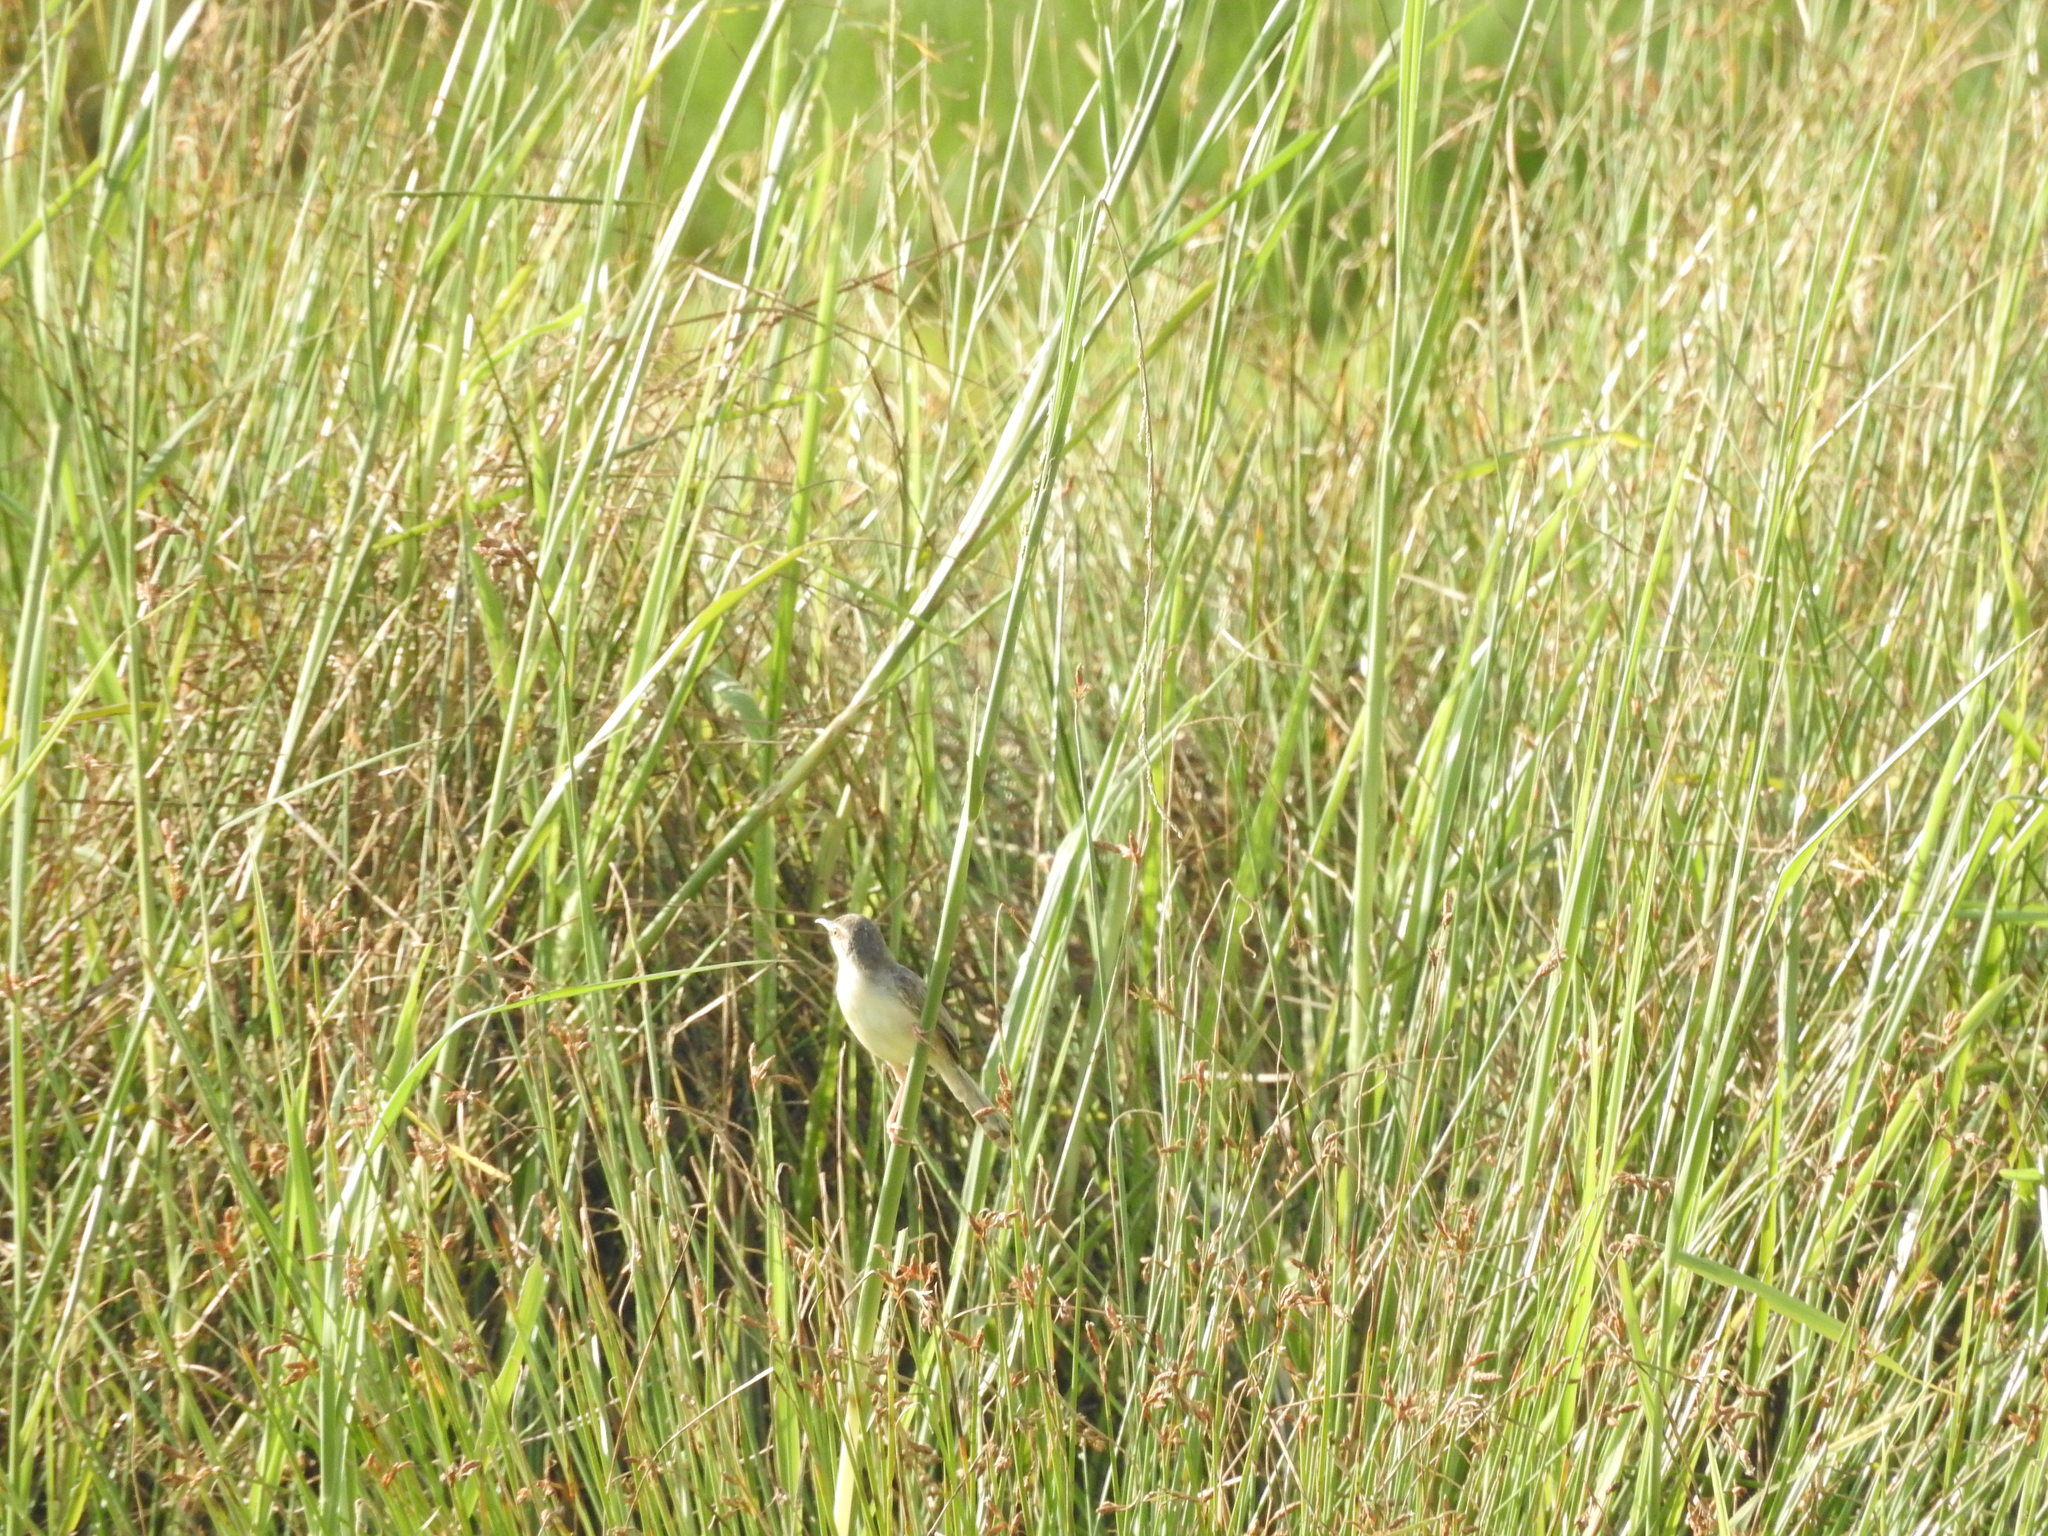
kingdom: Animalia
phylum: Chordata
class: Aves
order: Passeriformes
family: Cisticolidae
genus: Prinia
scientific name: Prinia inornata
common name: Plain prinia
